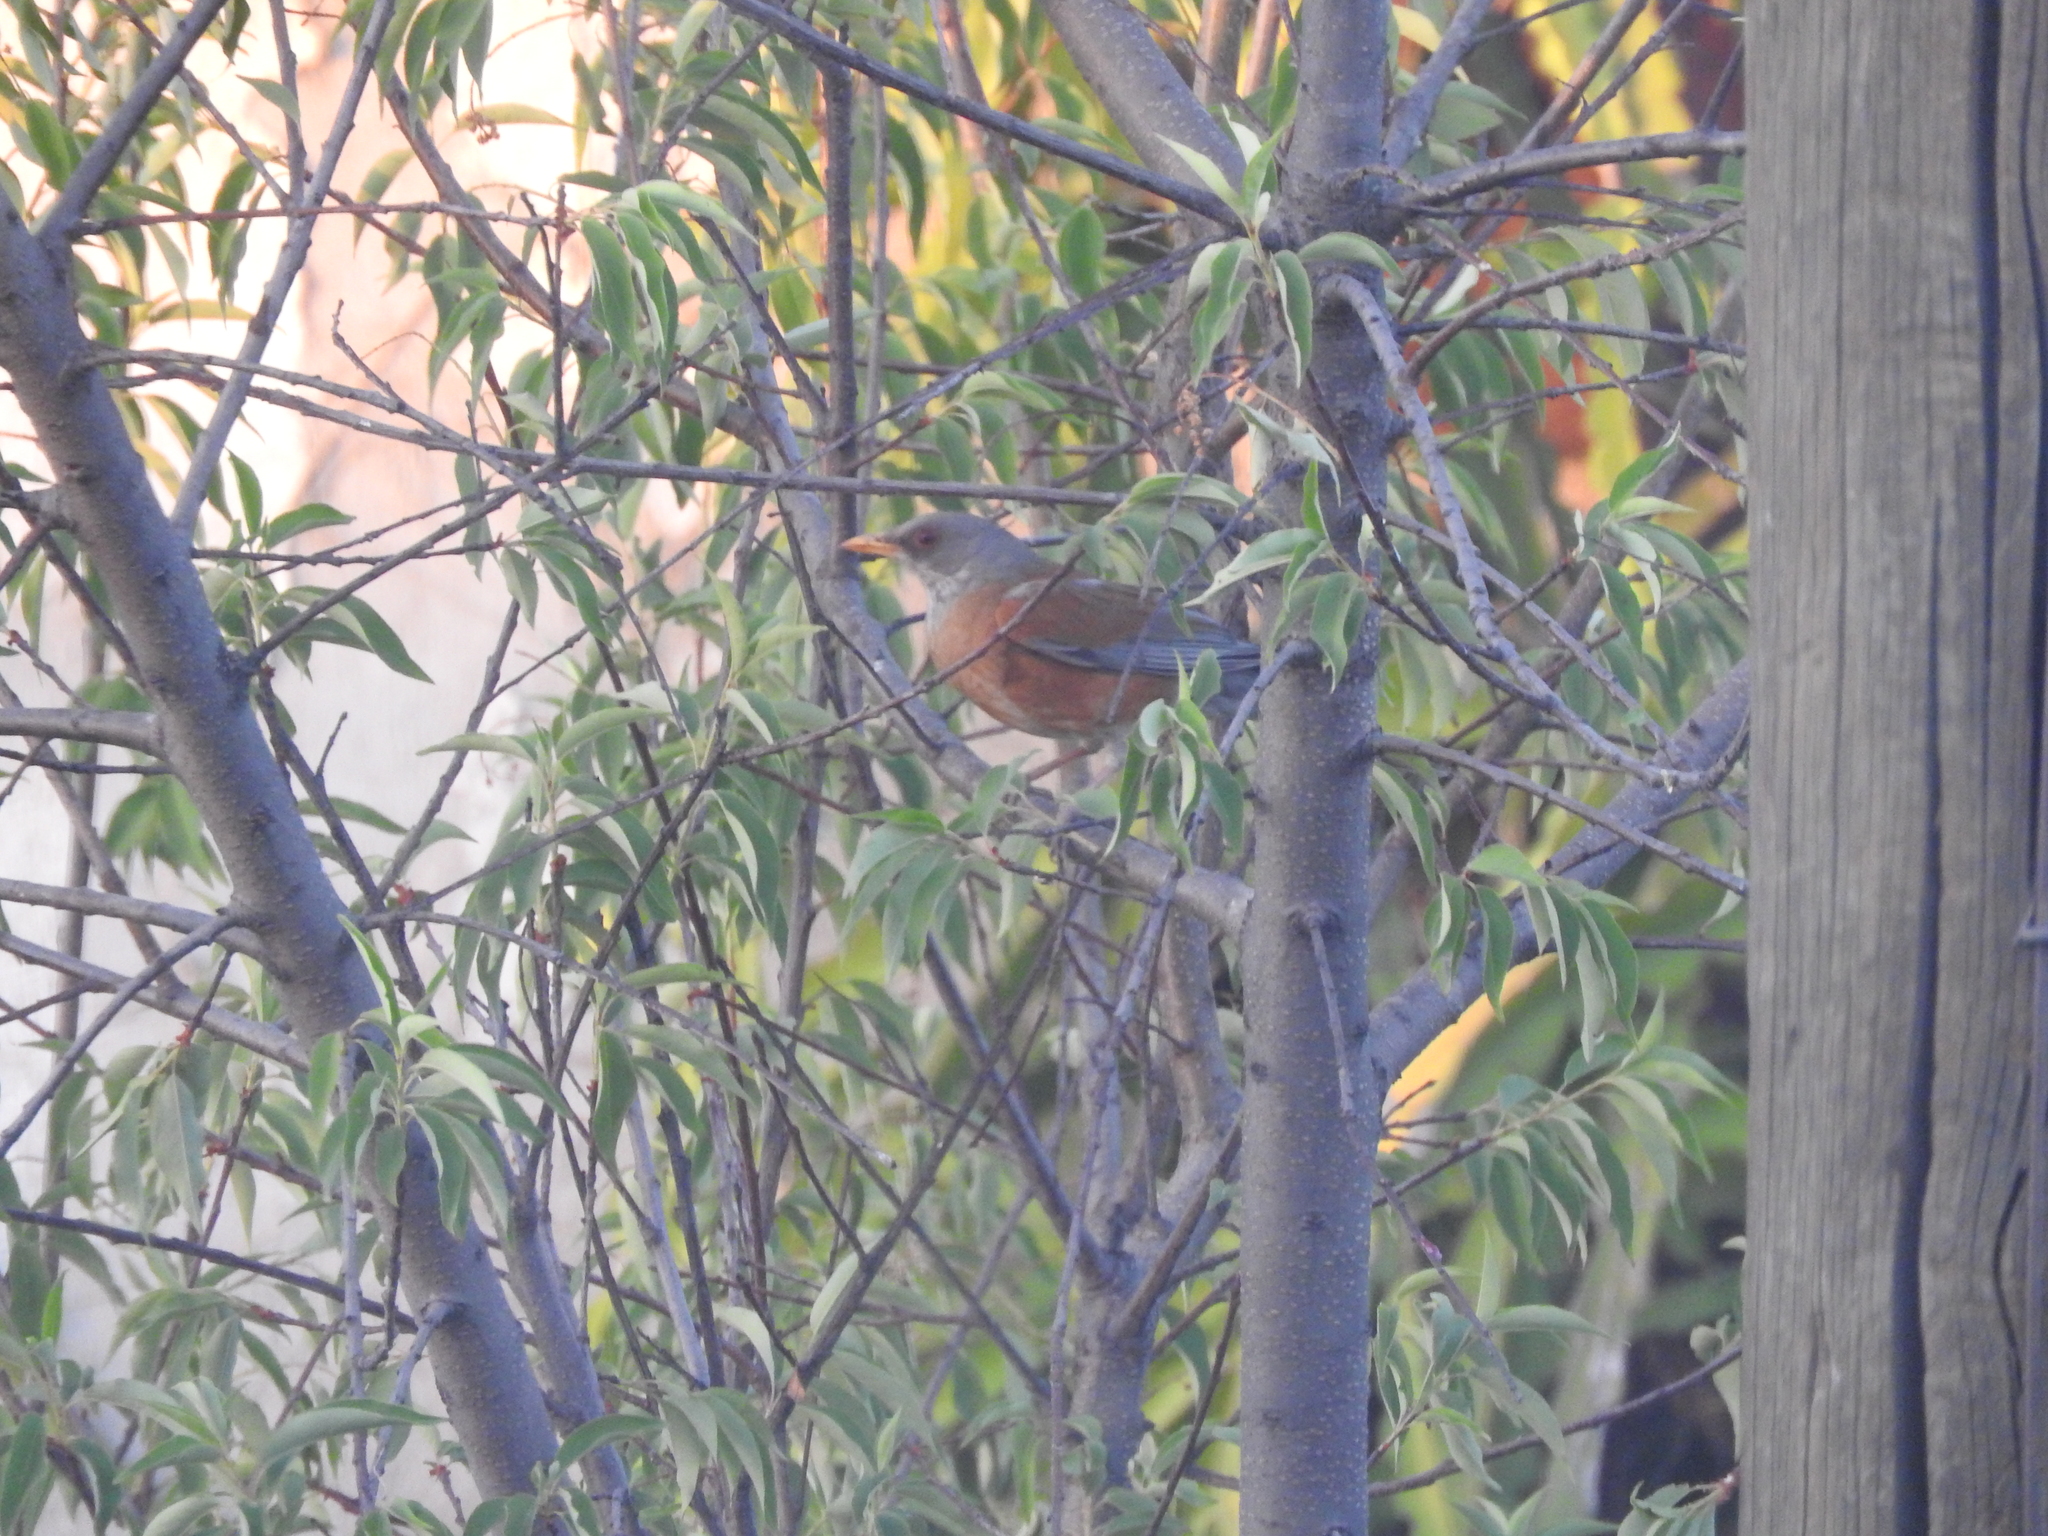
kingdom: Animalia
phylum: Chordata
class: Aves
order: Passeriformes
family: Turdidae
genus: Turdus
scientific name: Turdus rufopalliatus
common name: Rufous-backed robin
